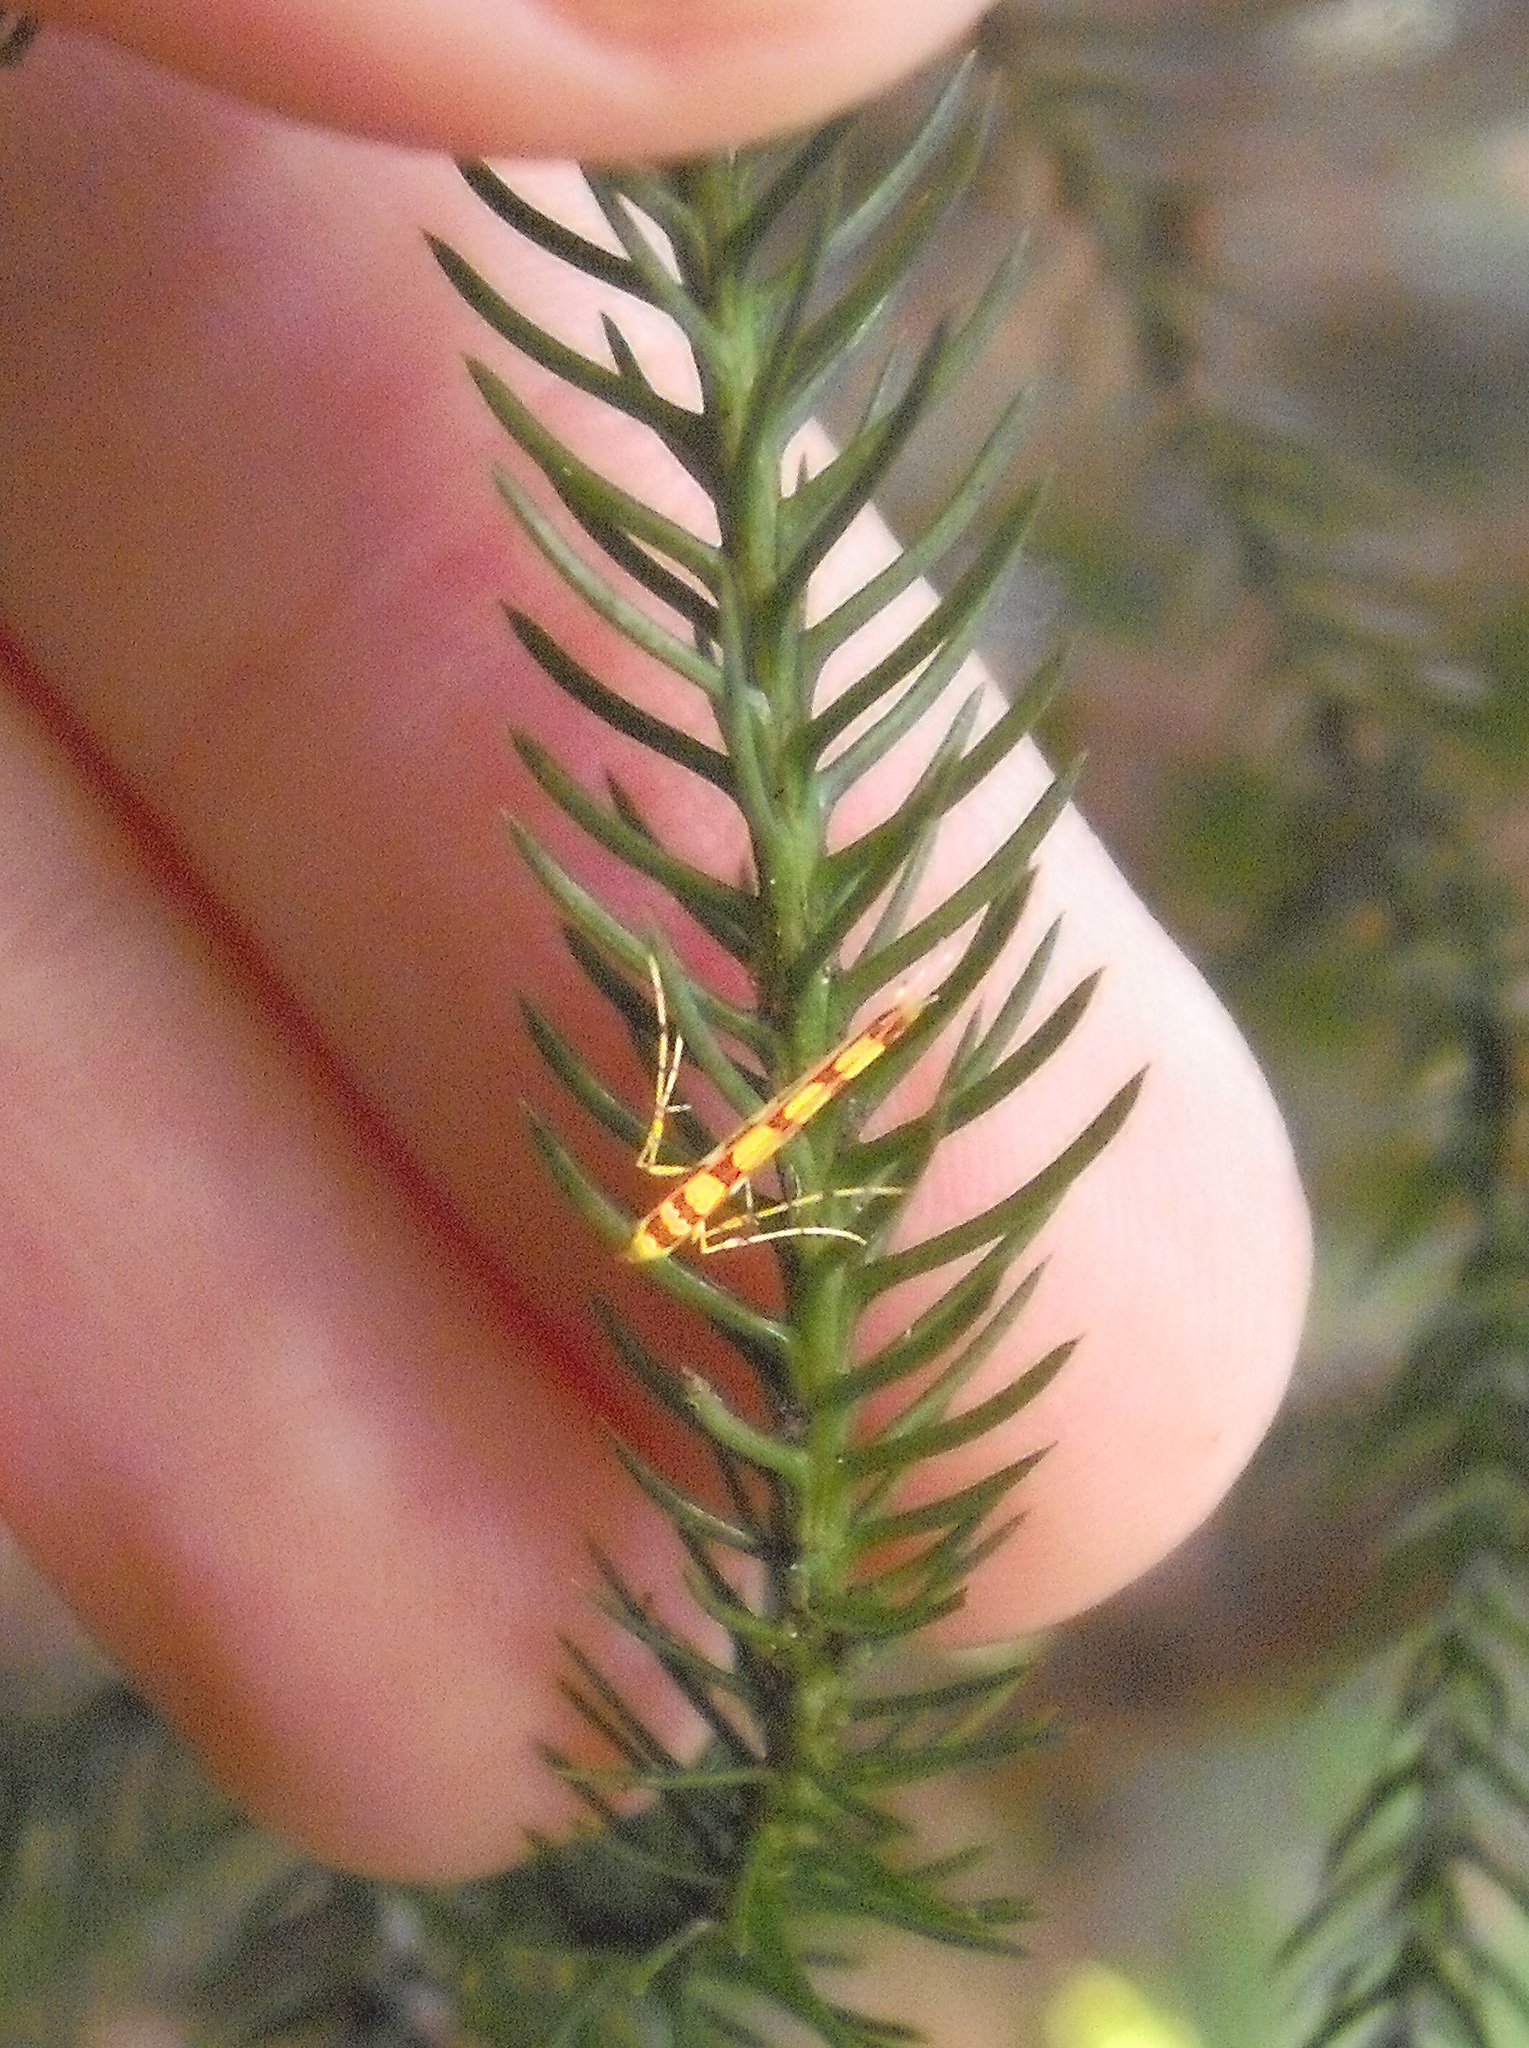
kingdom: Animalia
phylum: Arthropoda
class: Insecta
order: Lepidoptera
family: Gracillariidae
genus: Macarostola
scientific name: Macarostola miniella
